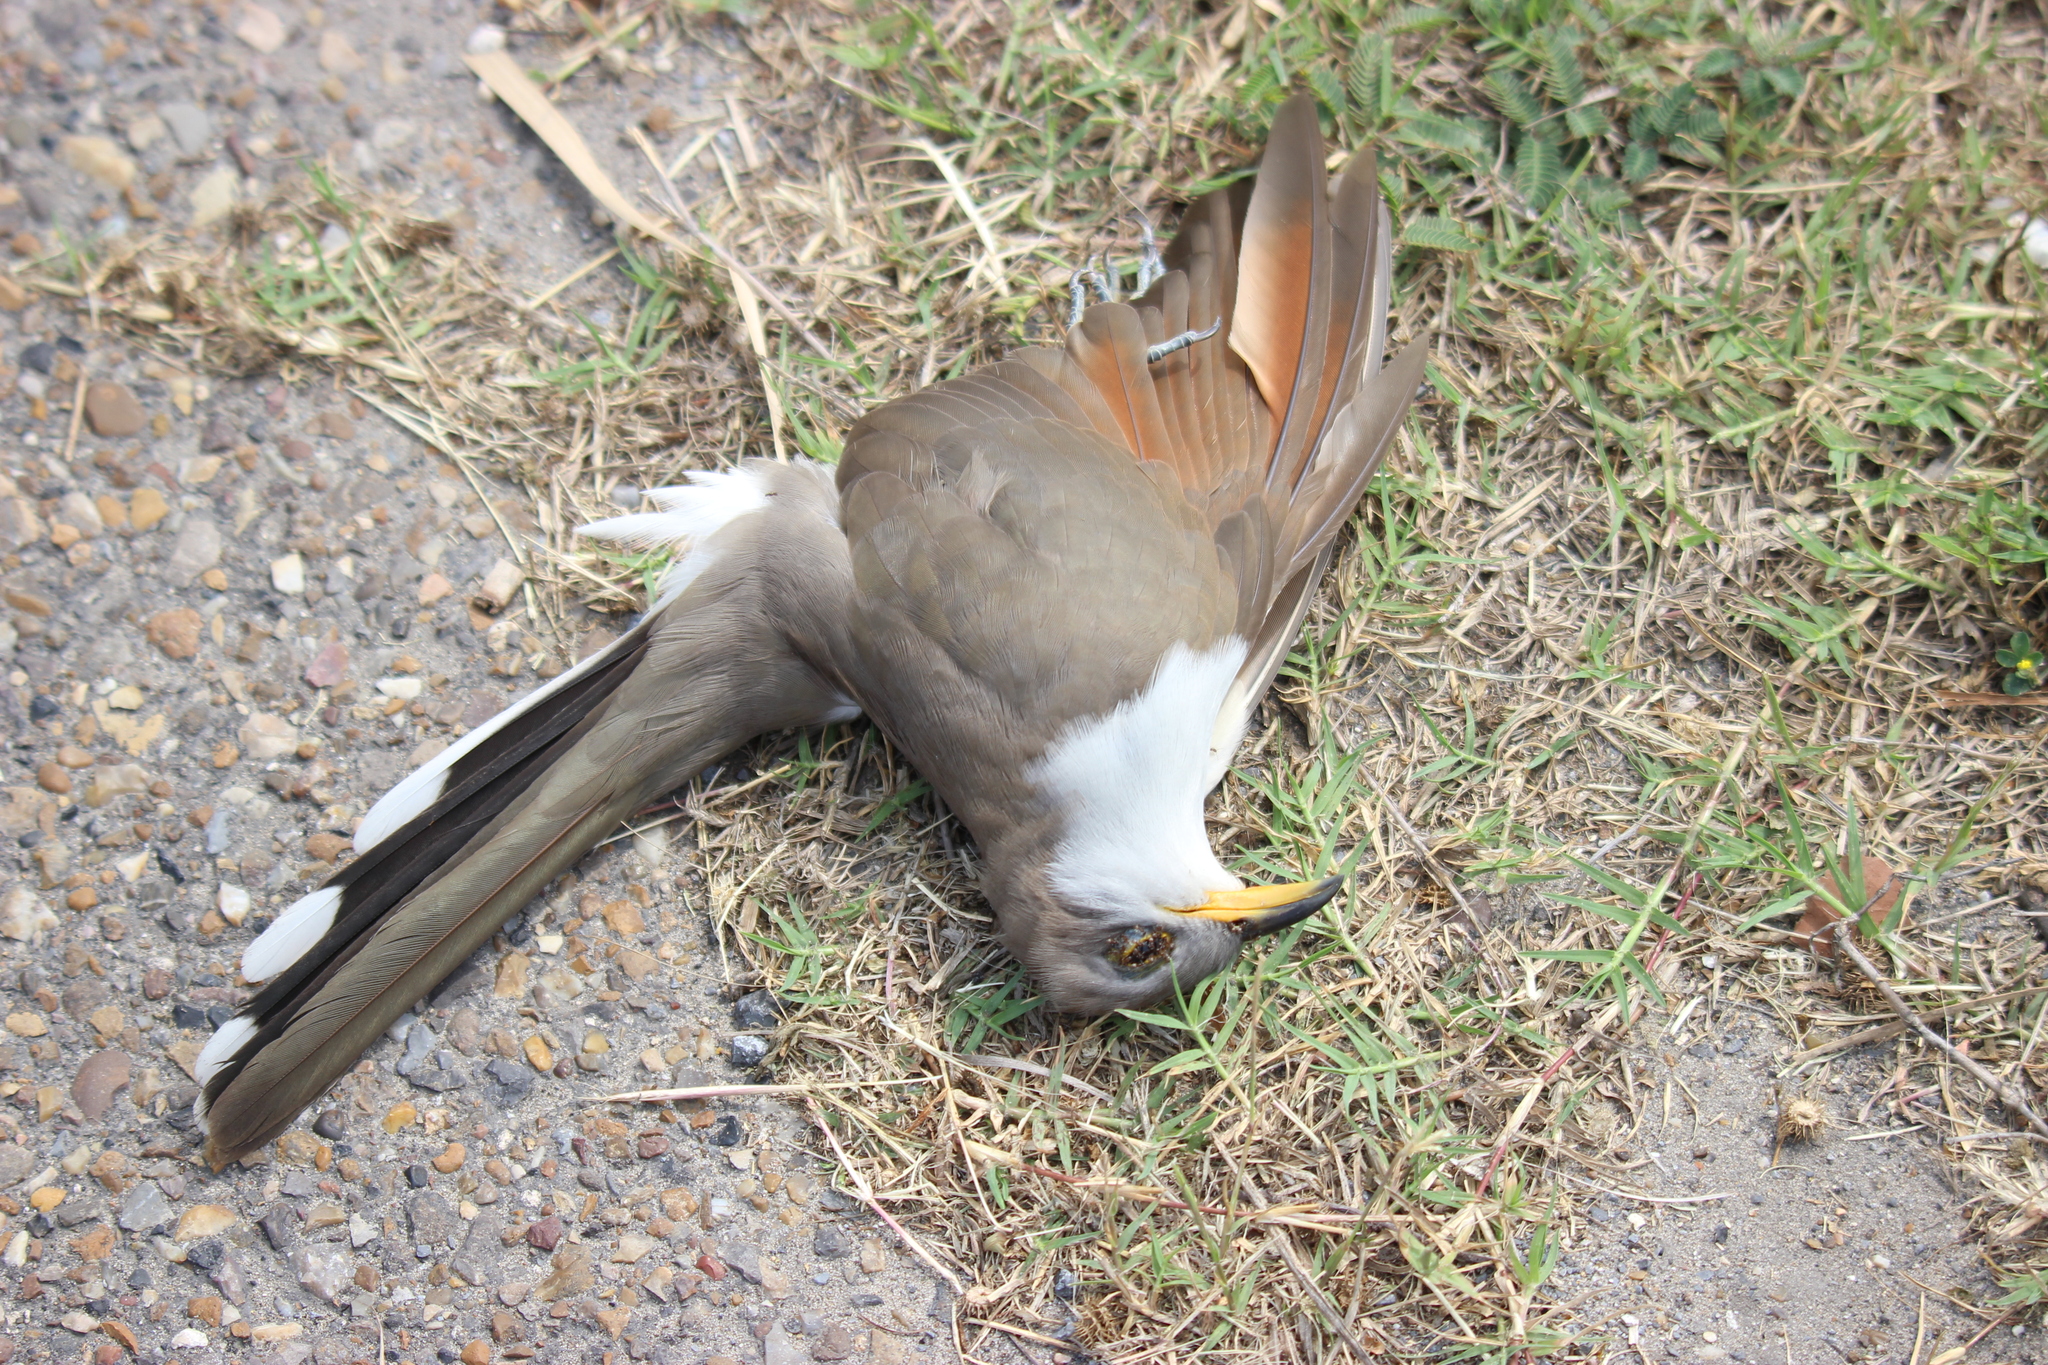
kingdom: Animalia
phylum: Chordata
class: Aves
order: Cuculiformes
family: Cuculidae
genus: Coccyzus
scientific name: Coccyzus americanus
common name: Yellow-billed cuckoo
